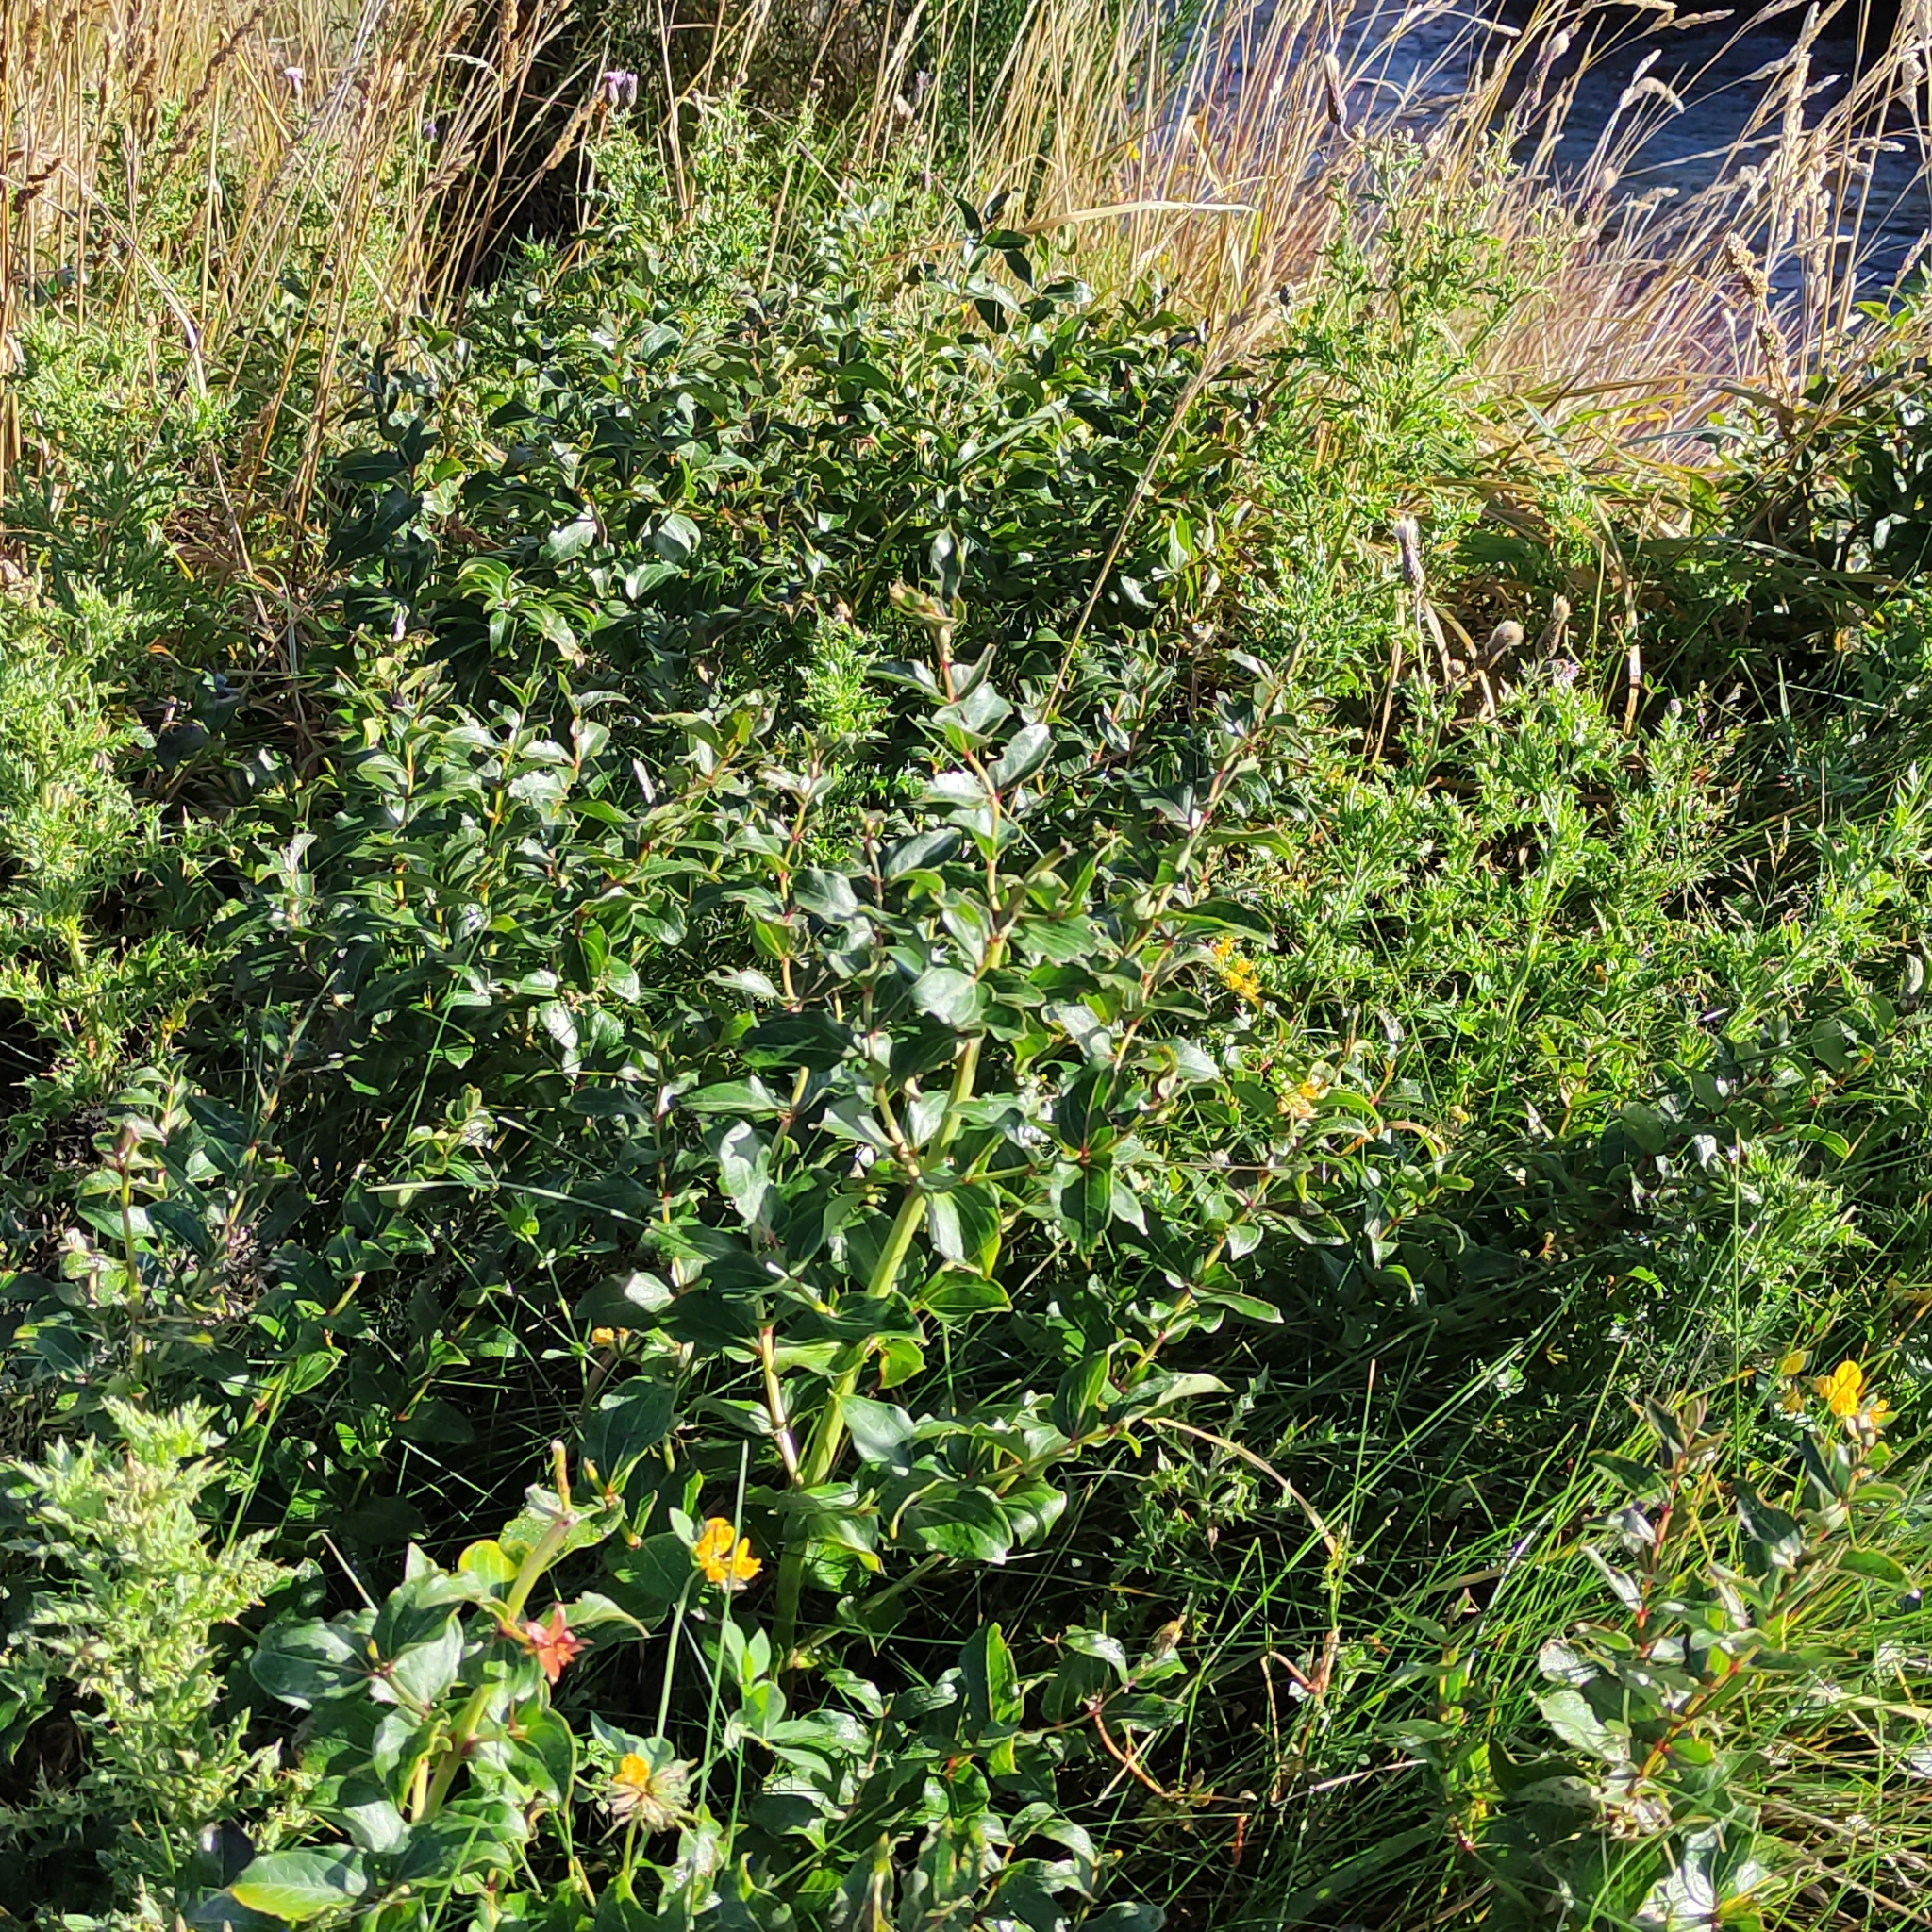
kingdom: Plantae
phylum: Tracheophyta
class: Magnoliopsida
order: Cucurbitales
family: Coriariaceae
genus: Coriaria
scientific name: Coriaria sarmentosa
